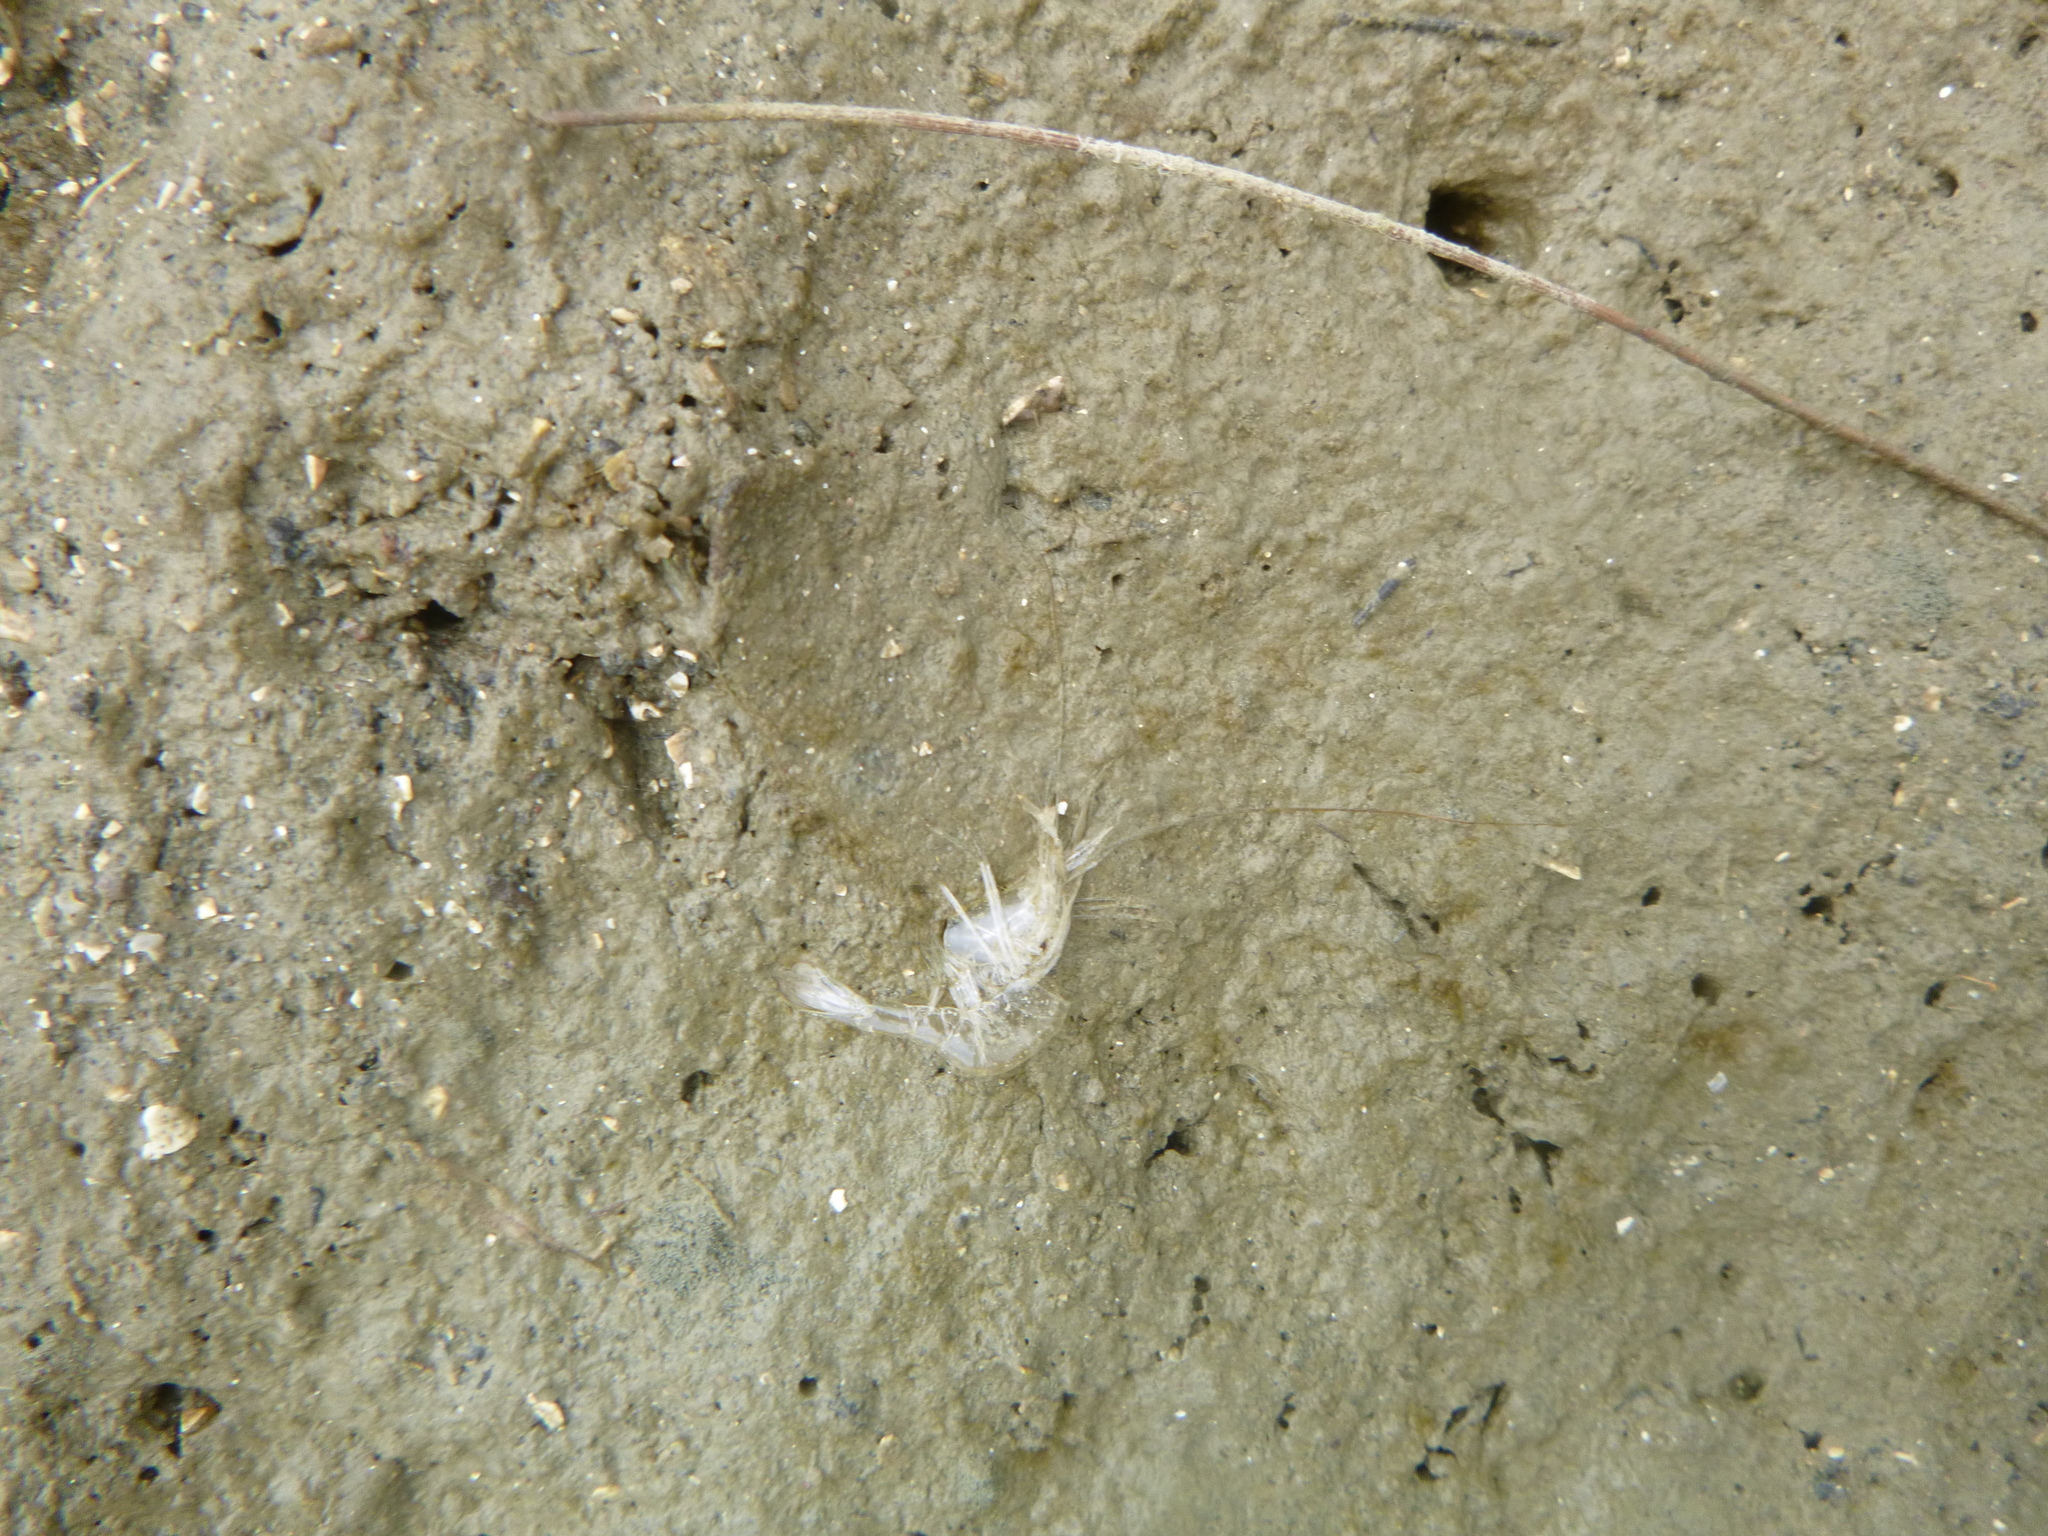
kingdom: Animalia
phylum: Arthropoda
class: Malacostraca
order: Decapoda
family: Palaemonidae
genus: Palaemon
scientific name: Palaemon affinis
